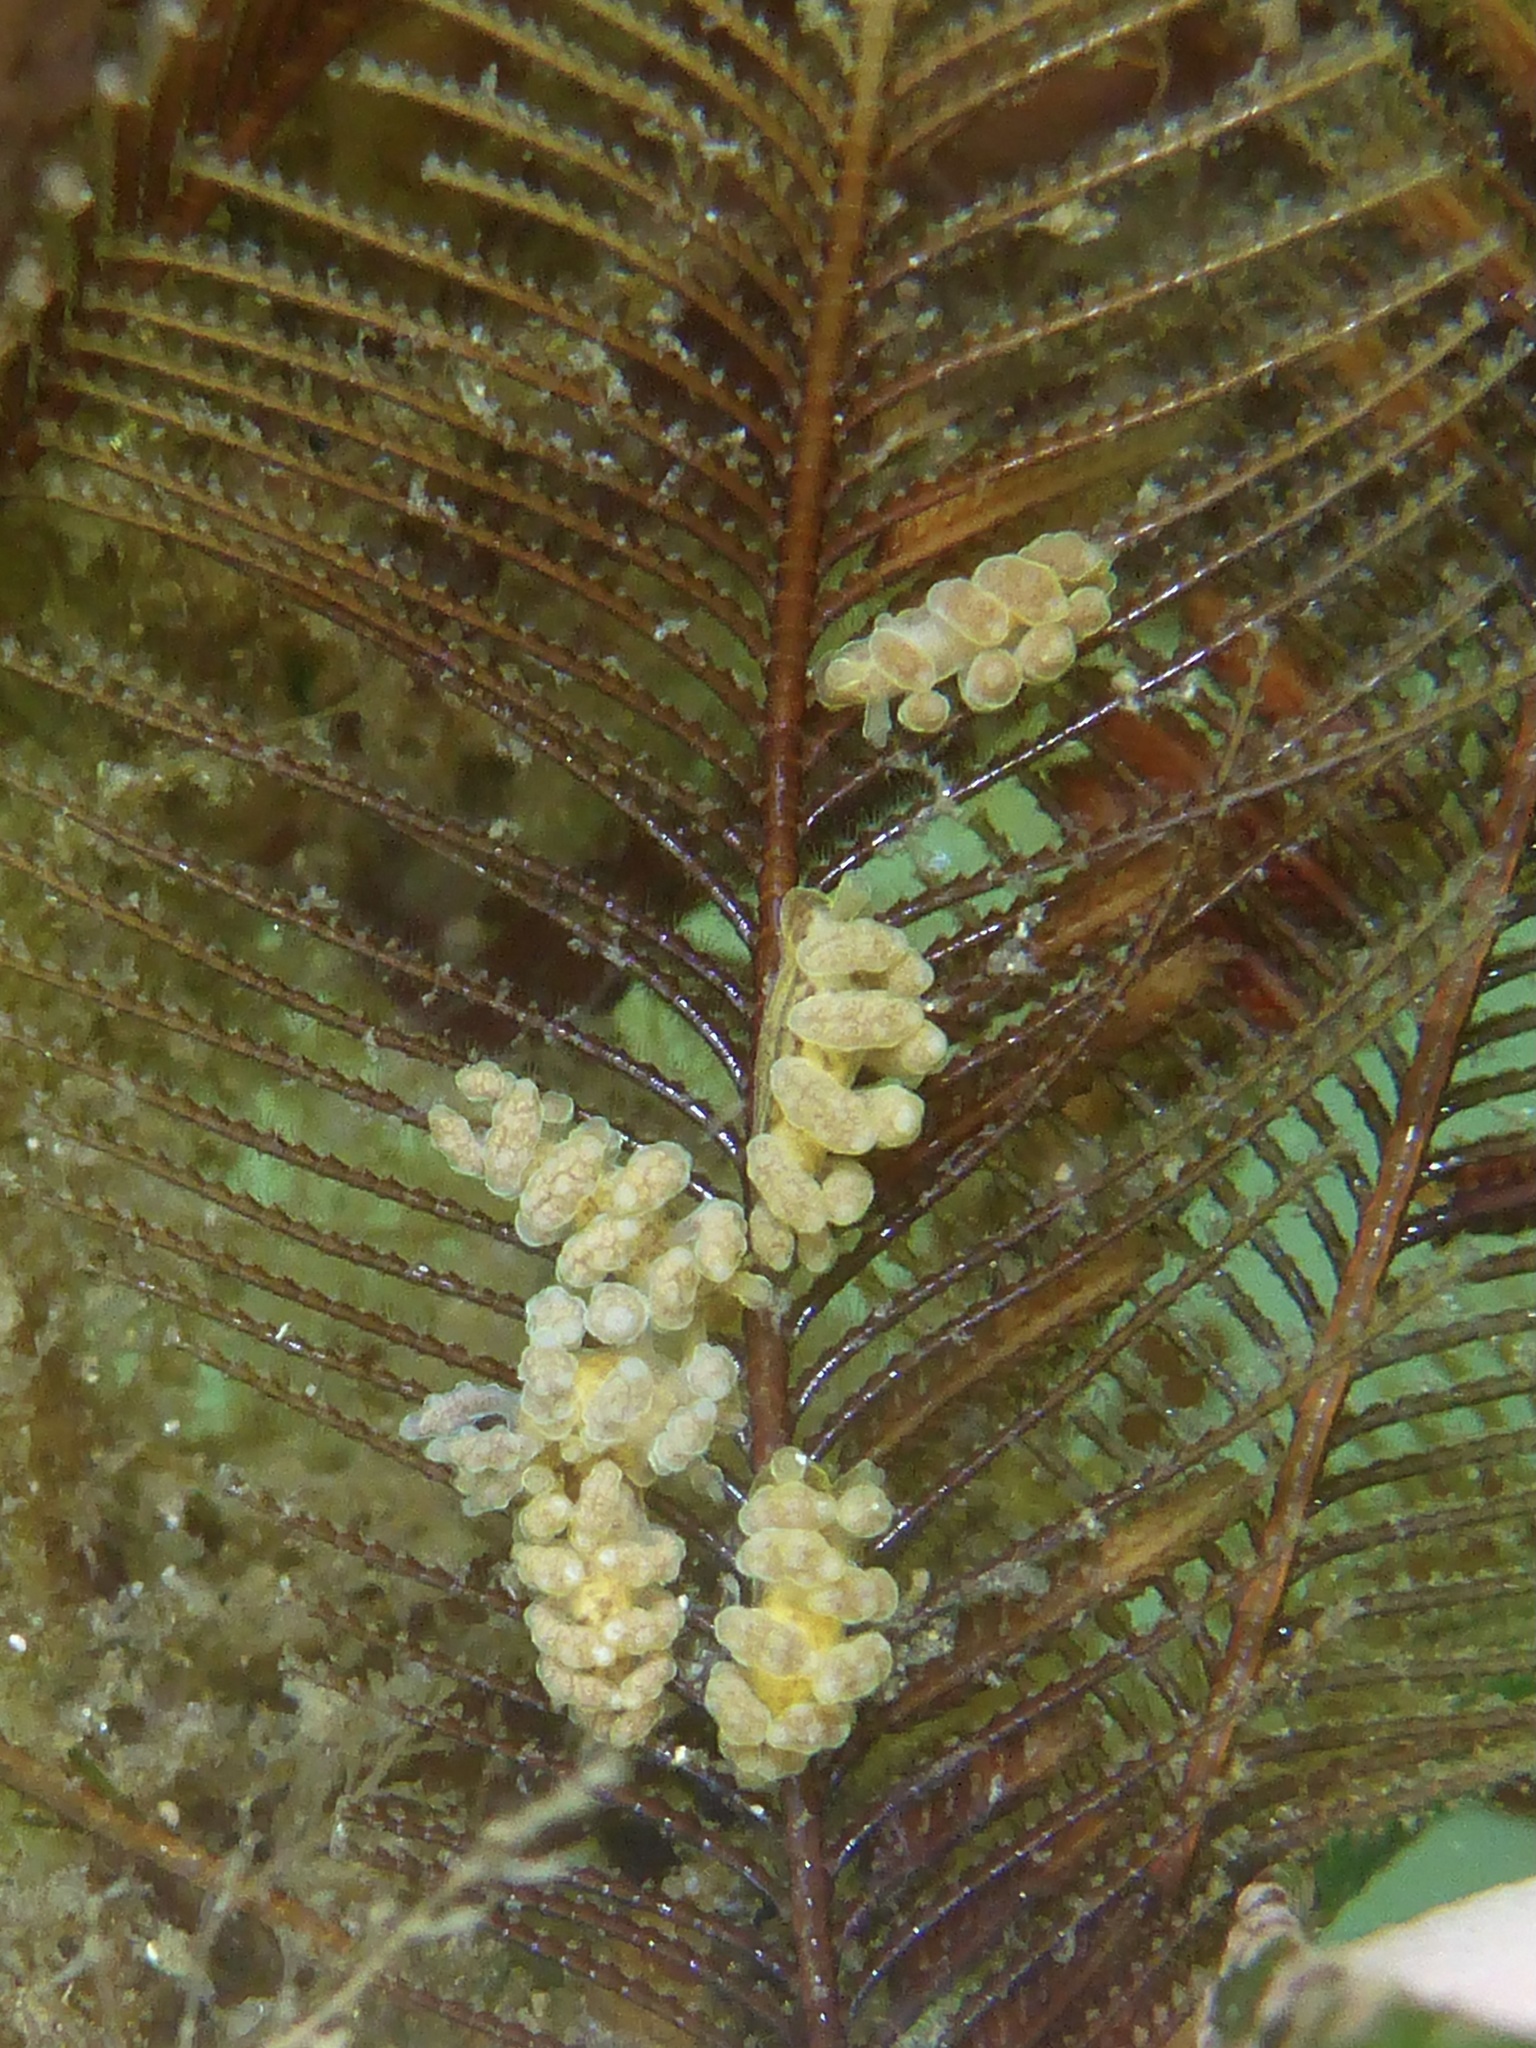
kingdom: Animalia
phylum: Mollusca
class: Gastropoda
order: Nudibranchia
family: Dotidae
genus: Doto
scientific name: Doto columbiana
